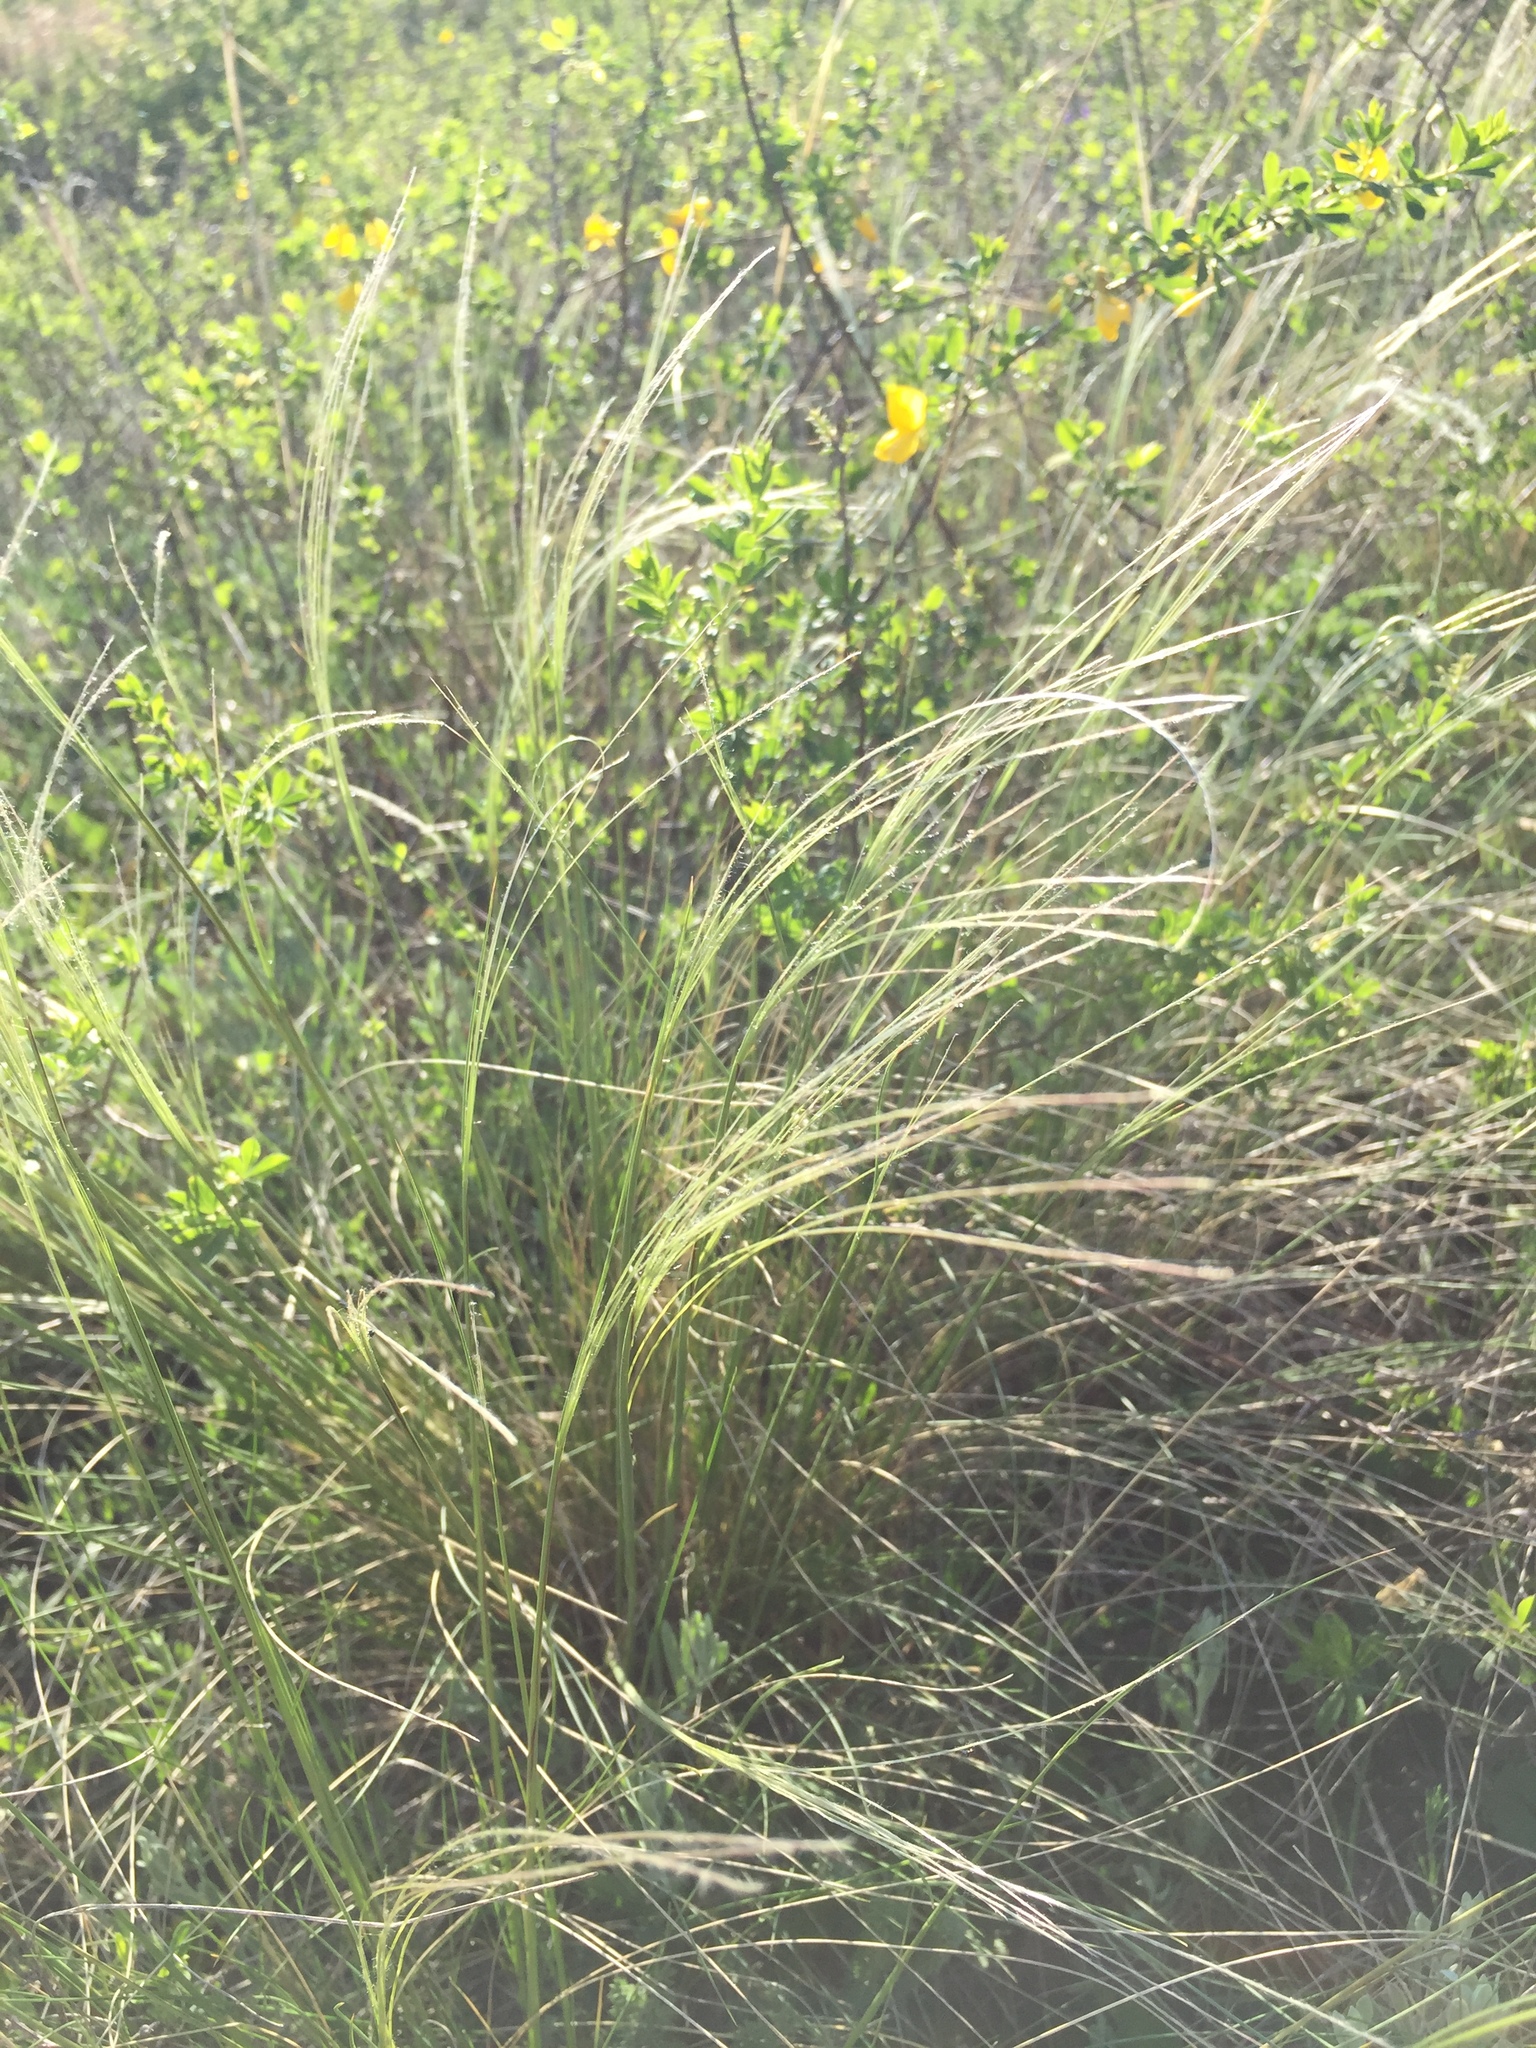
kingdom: Plantae
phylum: Tracheophyta
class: Liliopsida
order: Poales
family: Poaceae
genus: Stipa
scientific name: Stipa pennata
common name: European feather grass
